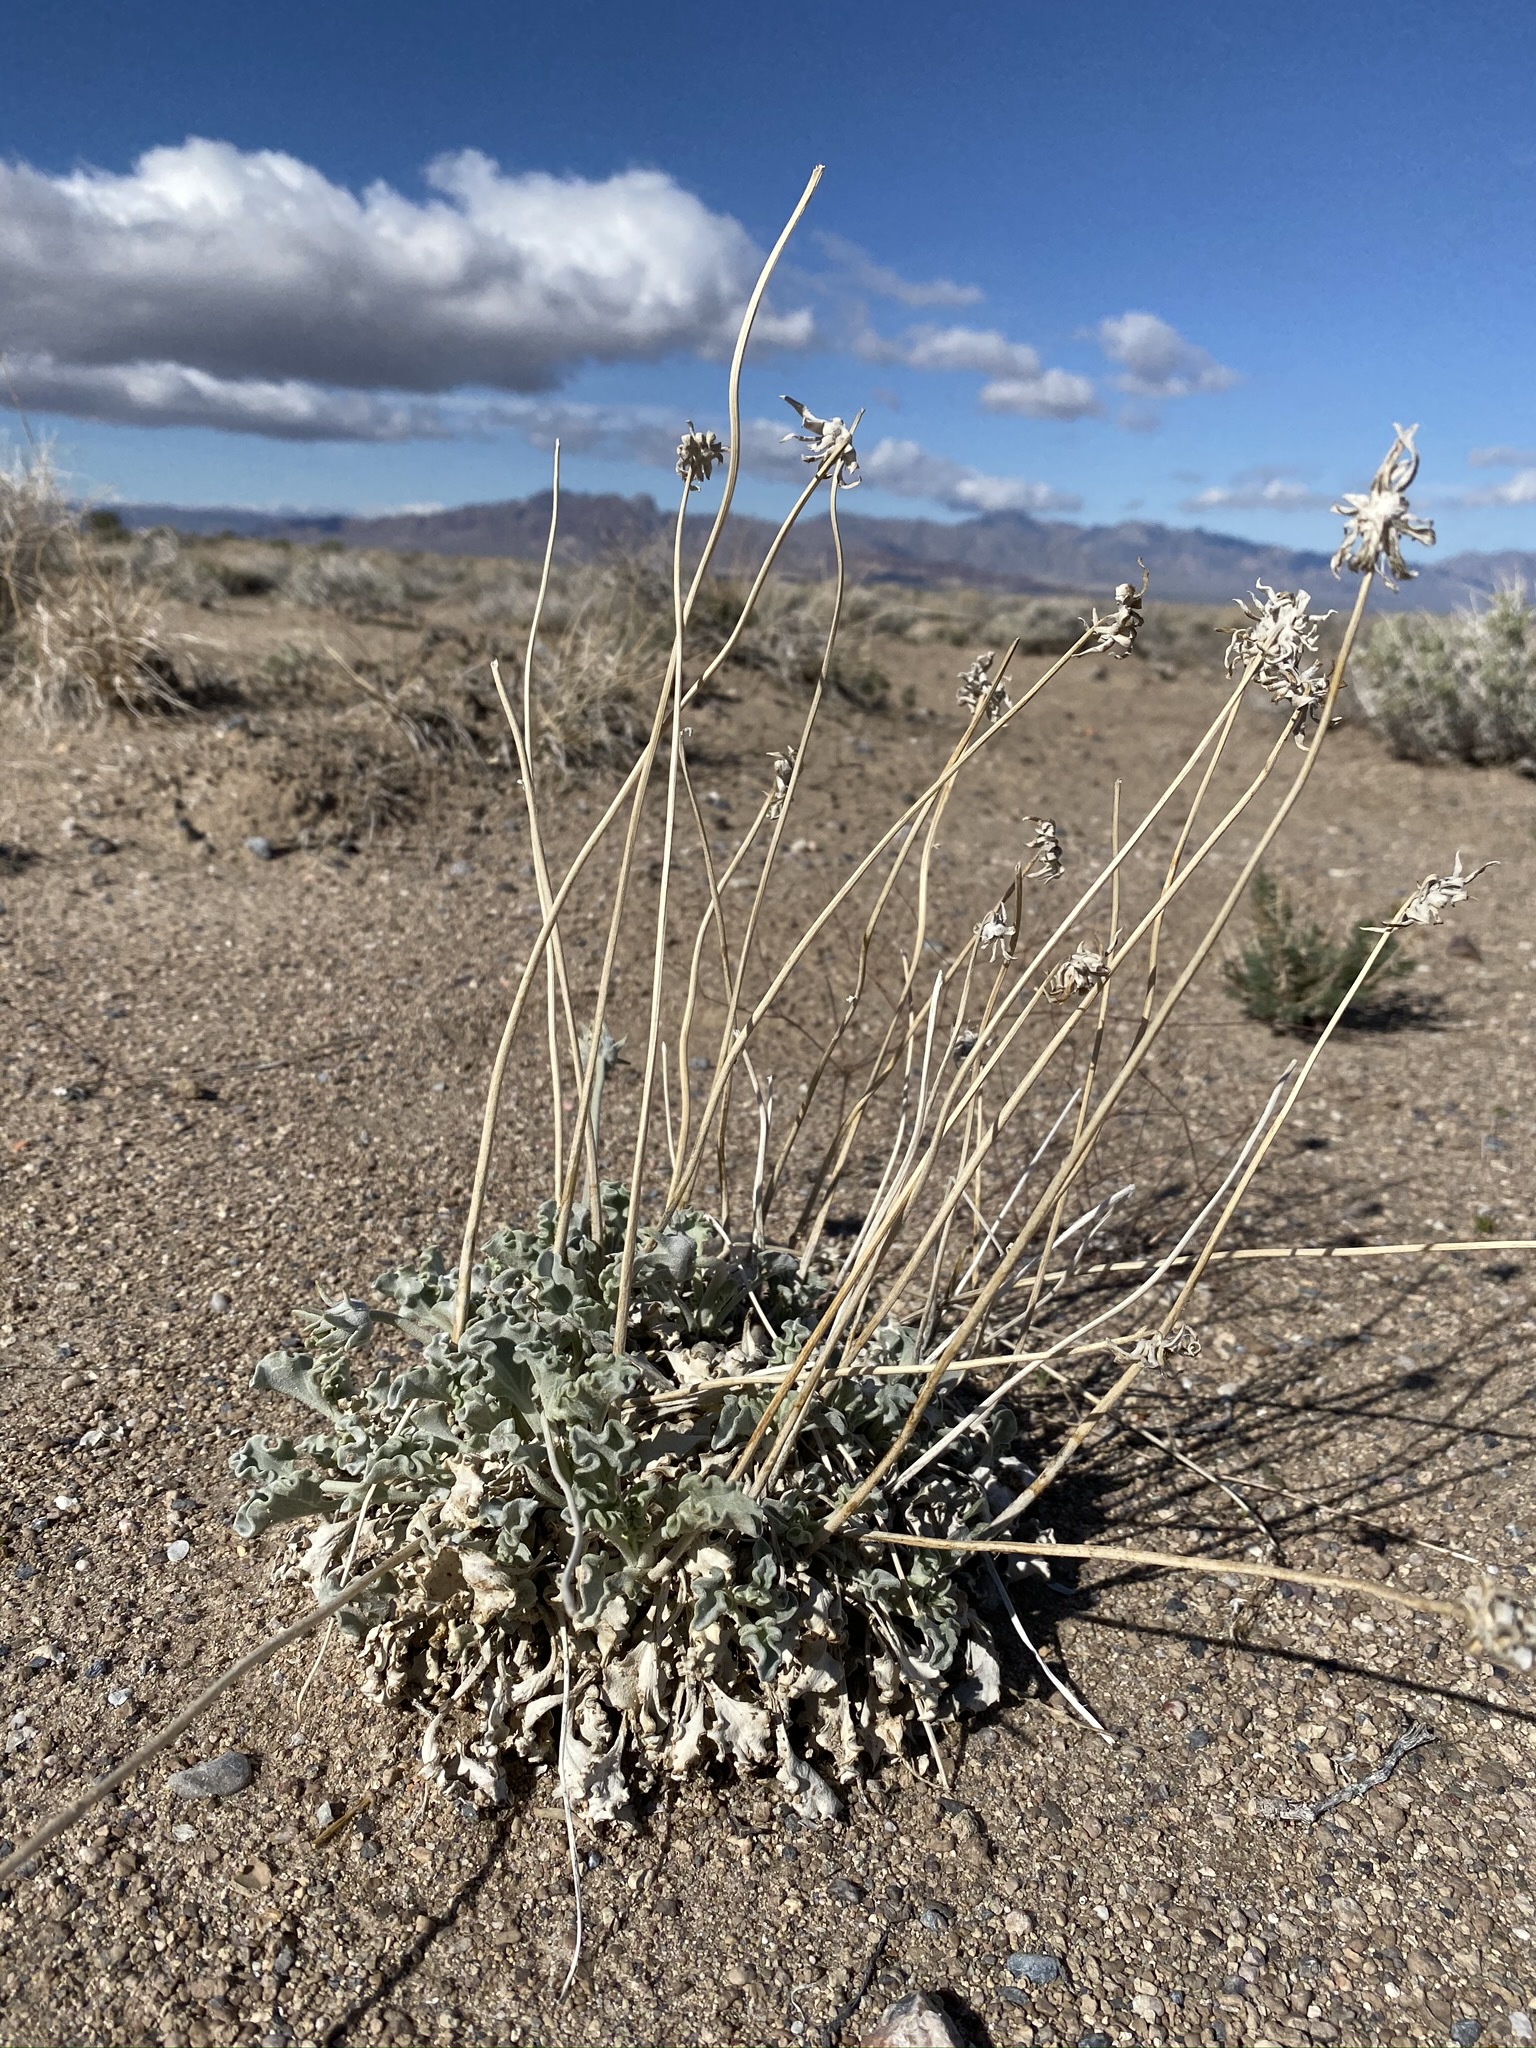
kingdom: Plantae
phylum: Tracheophyta
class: Magnoliopsida
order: Asterales
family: Asteraceae
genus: Enceliopsis
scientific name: Enceliopsis nudicaulis
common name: Naked-stem daisy
